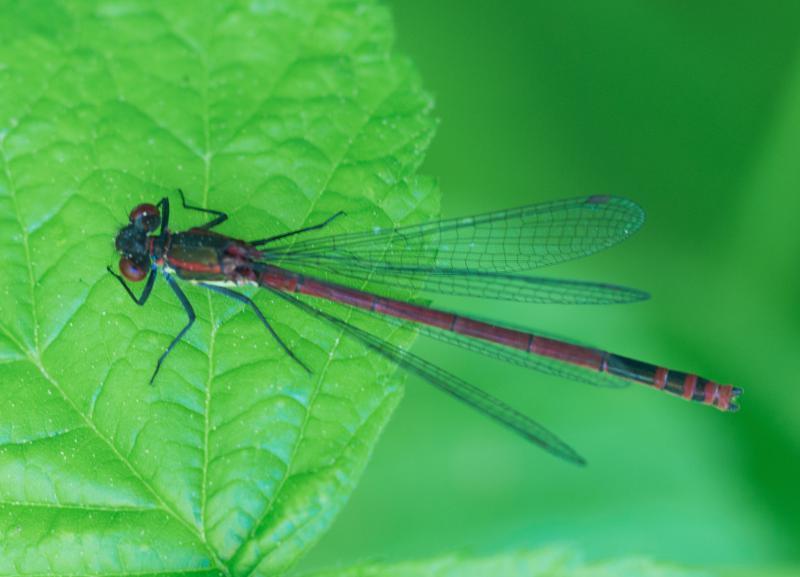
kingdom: Animalia
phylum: Arthropoda
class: Insecta
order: Odonata
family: Coenagrionidae
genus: Pyrrhosoma
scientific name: Pyrrhosoma nymphula
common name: Large red damsel
